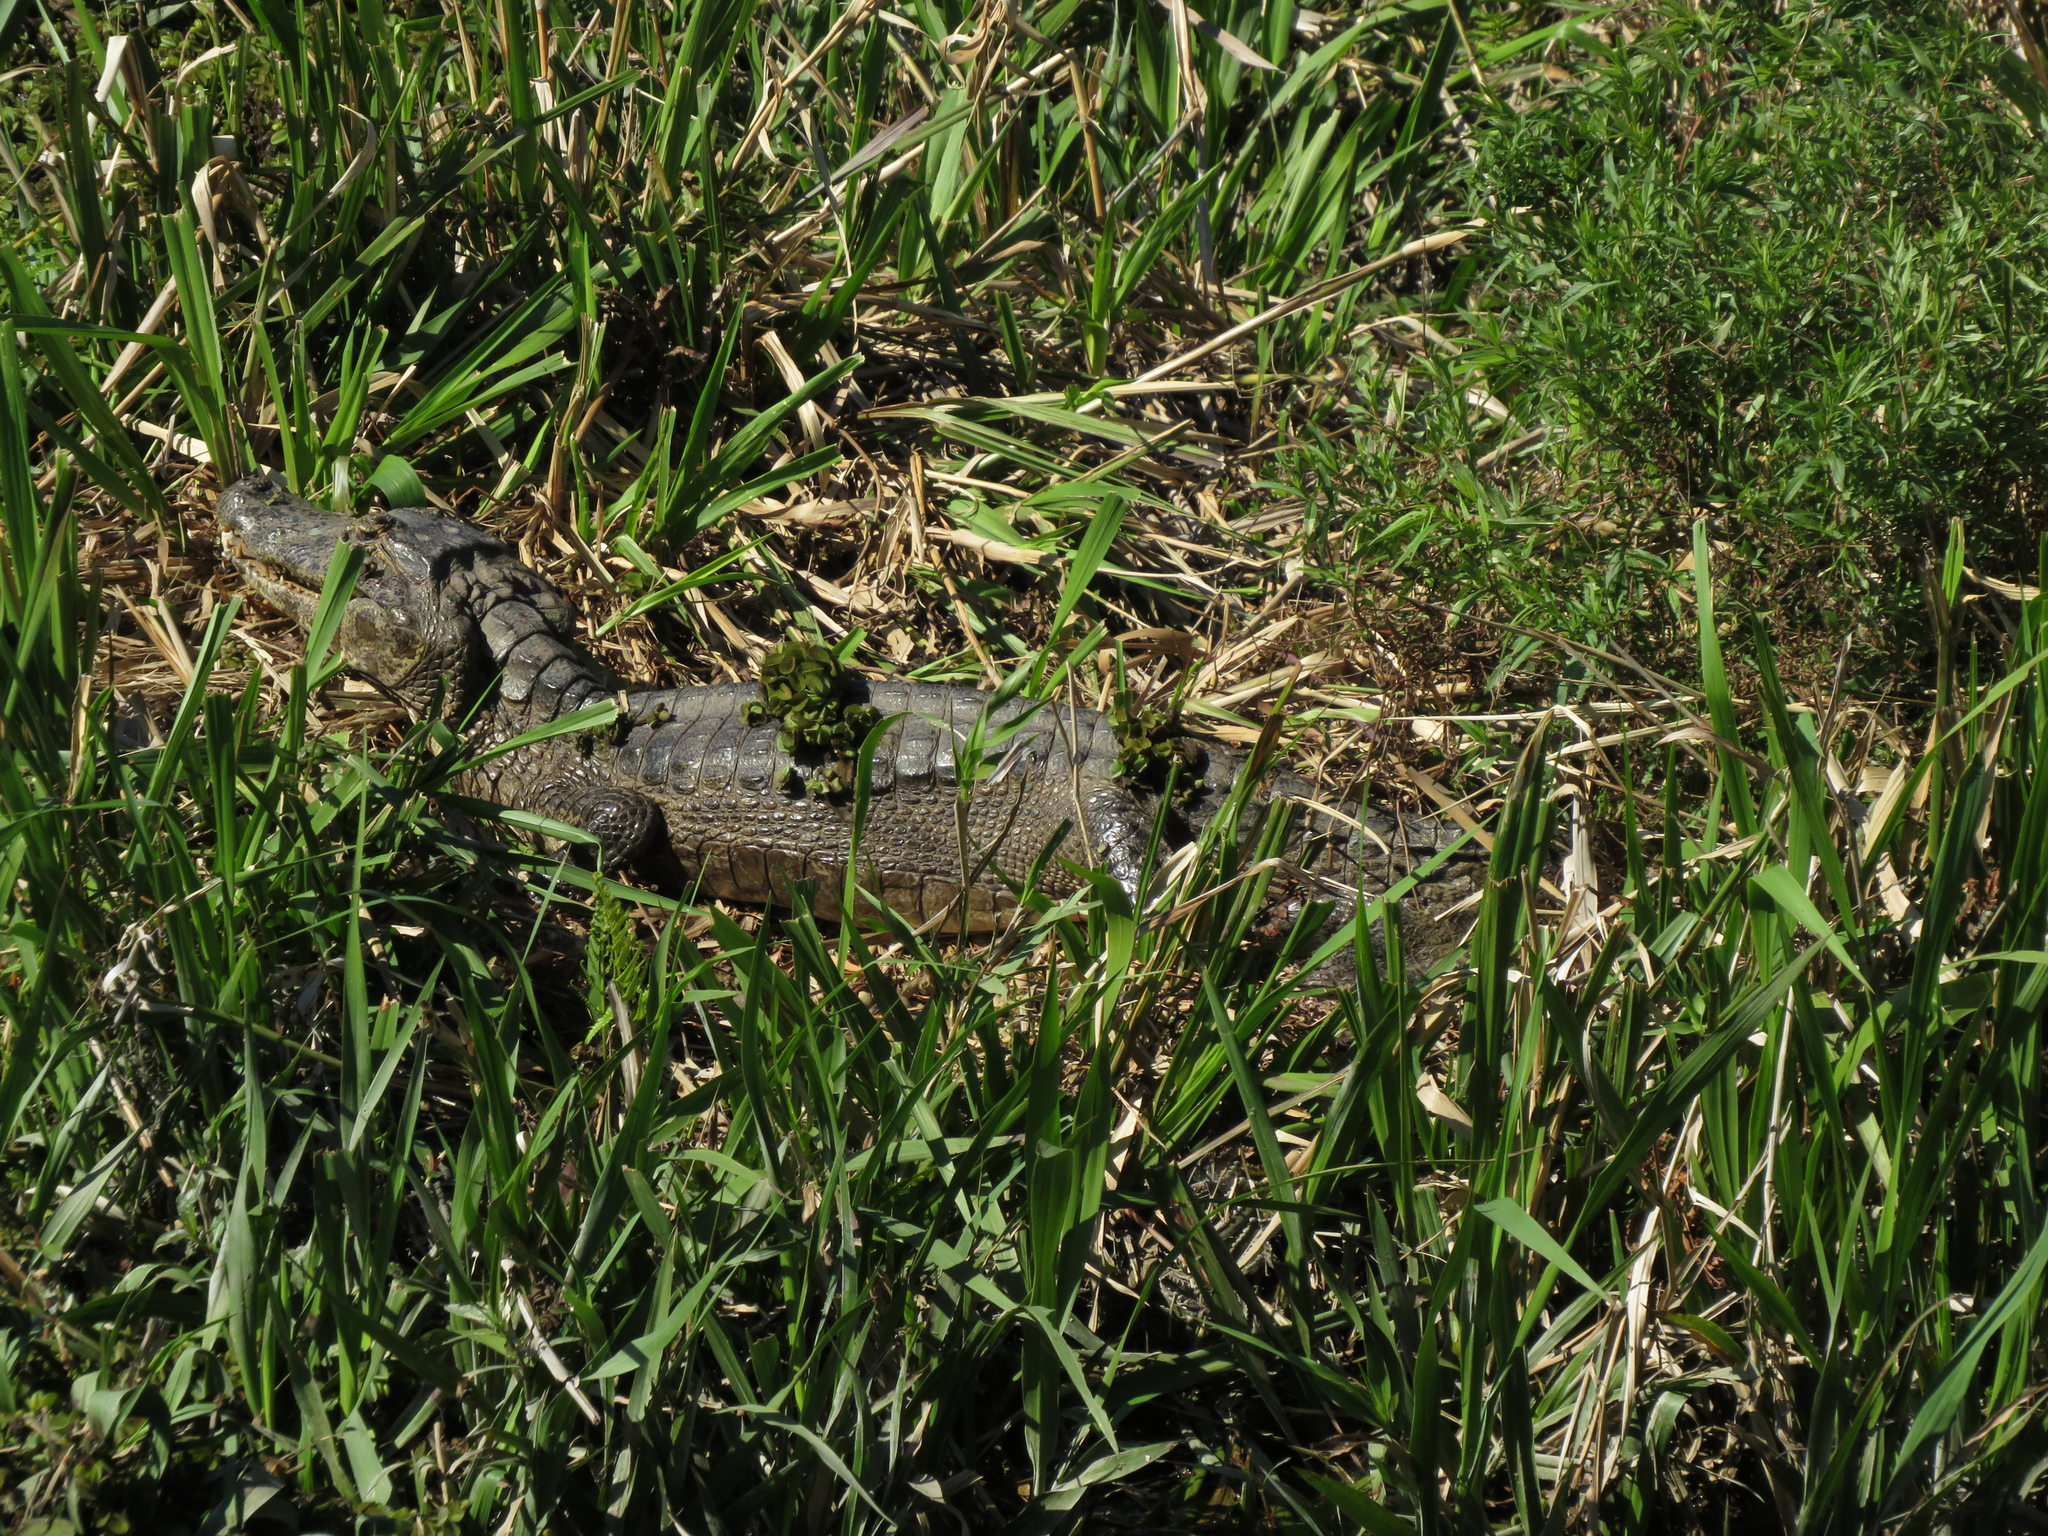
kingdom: Animalia
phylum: Chordata
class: Crocodylia
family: Alligatoridae
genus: Caiman
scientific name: Caiman yacare
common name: Yacare caiman
